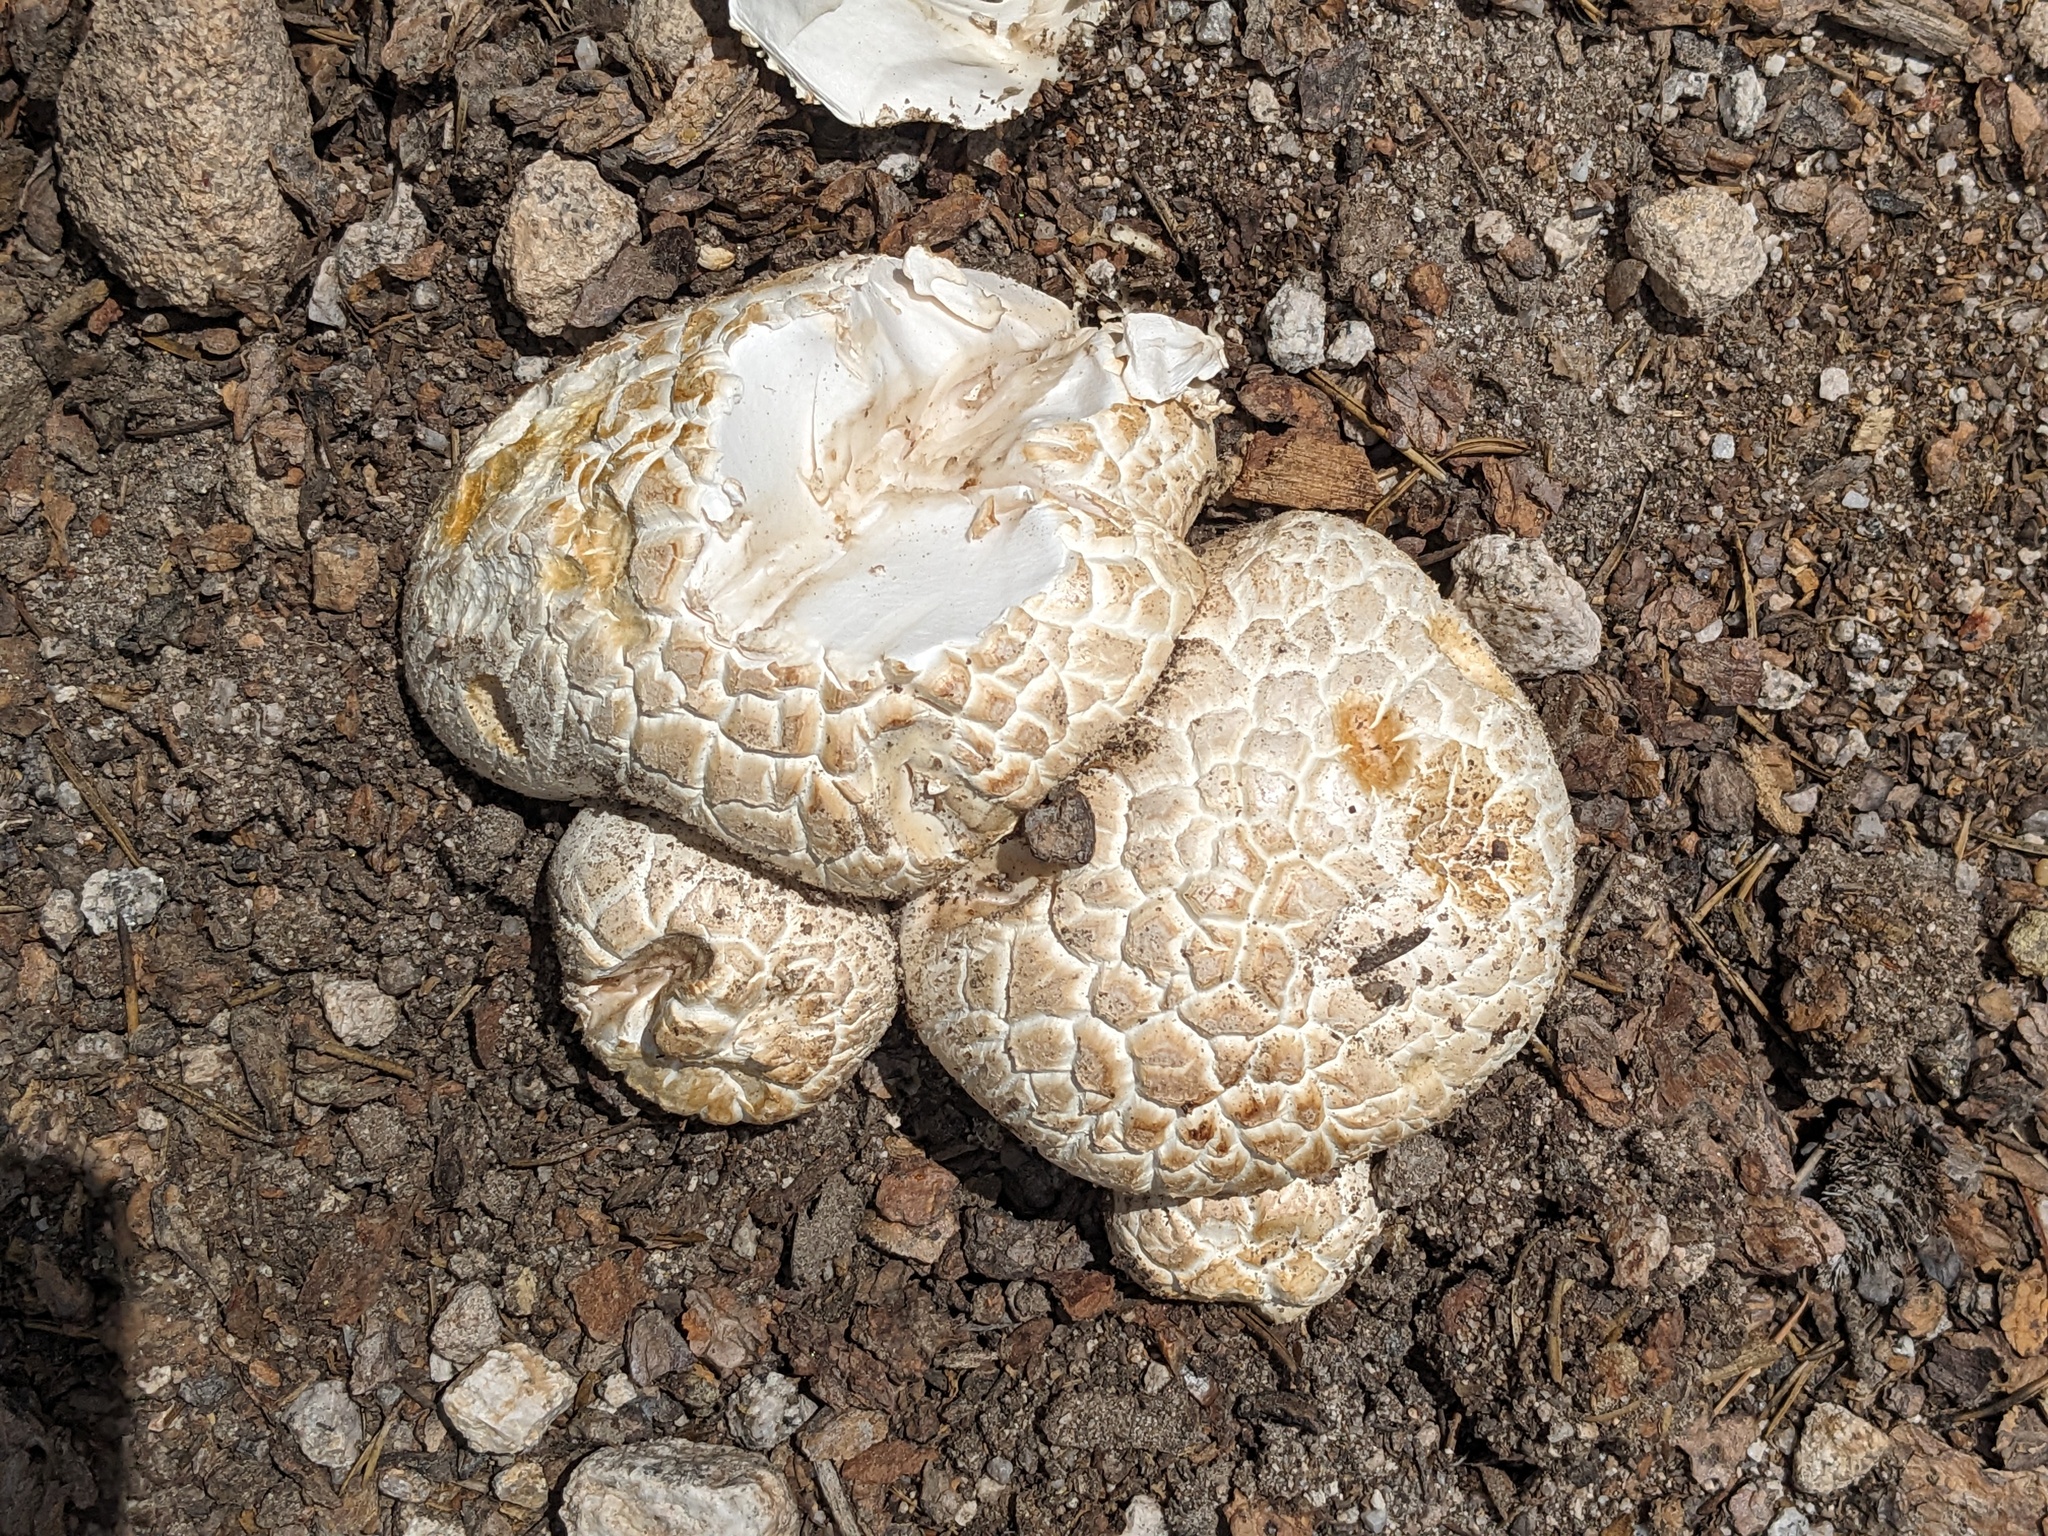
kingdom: Fungi
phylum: Basidiomycota
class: Agaricomycetes
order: Gloeophyllales
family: Gloeophyllaceae
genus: Neolentinus
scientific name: Neolentinus ponderosus
